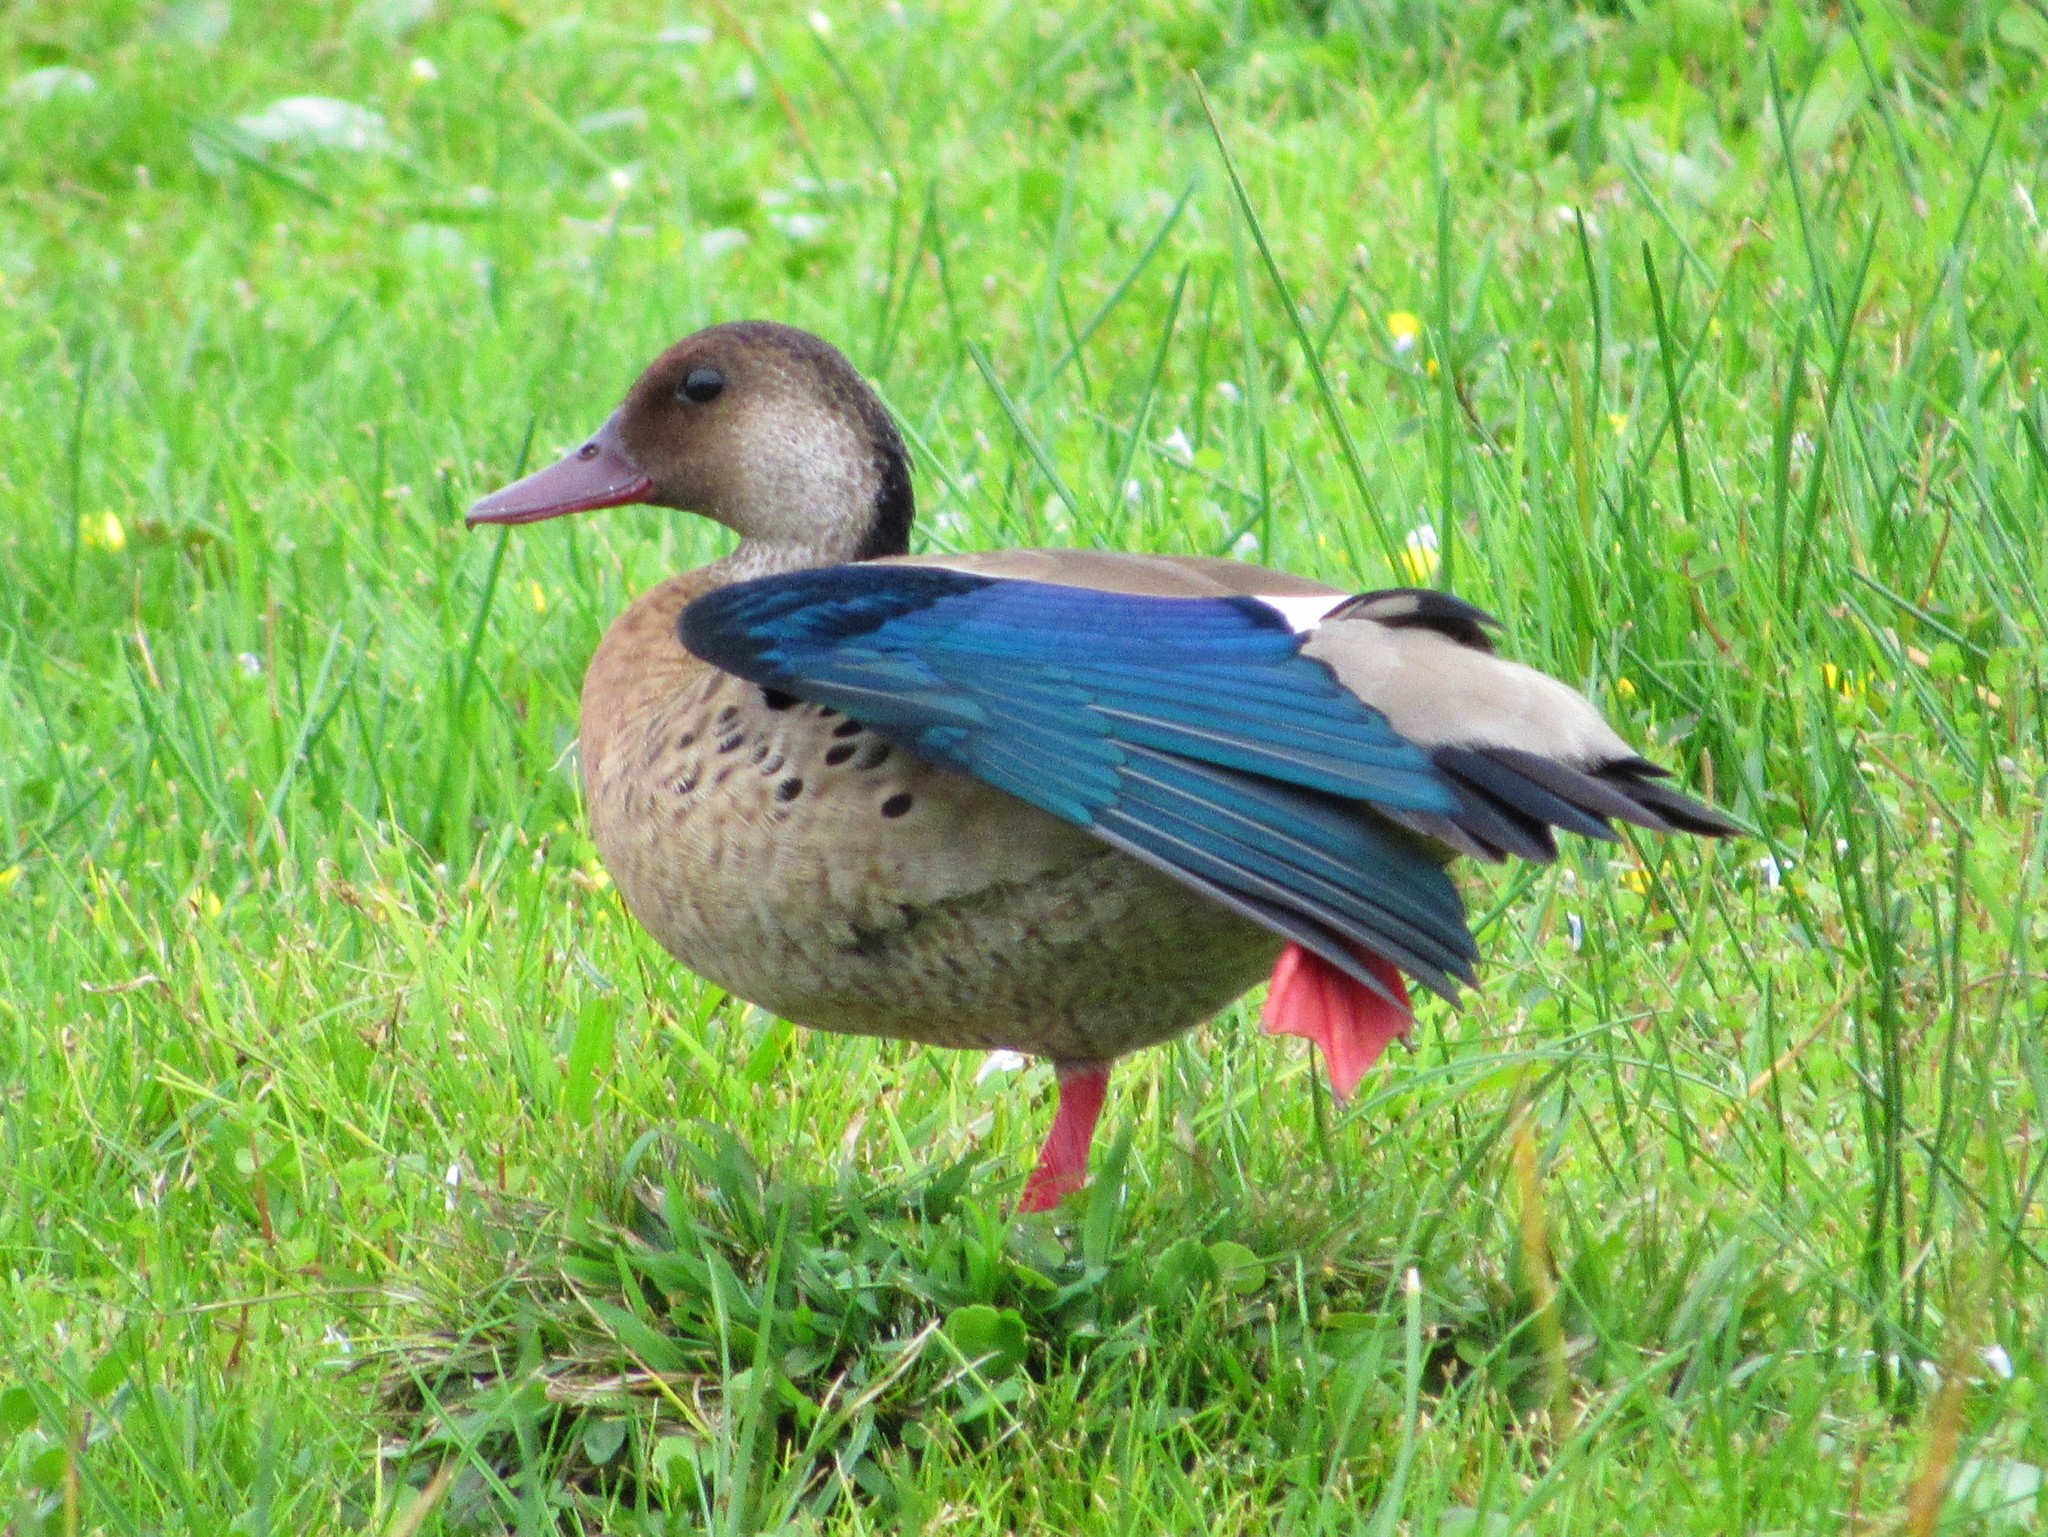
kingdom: Animalia
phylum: Chordata
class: Aves
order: Anseriformes
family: Anatidae
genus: Amazonetta
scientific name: Amazonetta brasiliensis
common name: Brazilian teal
